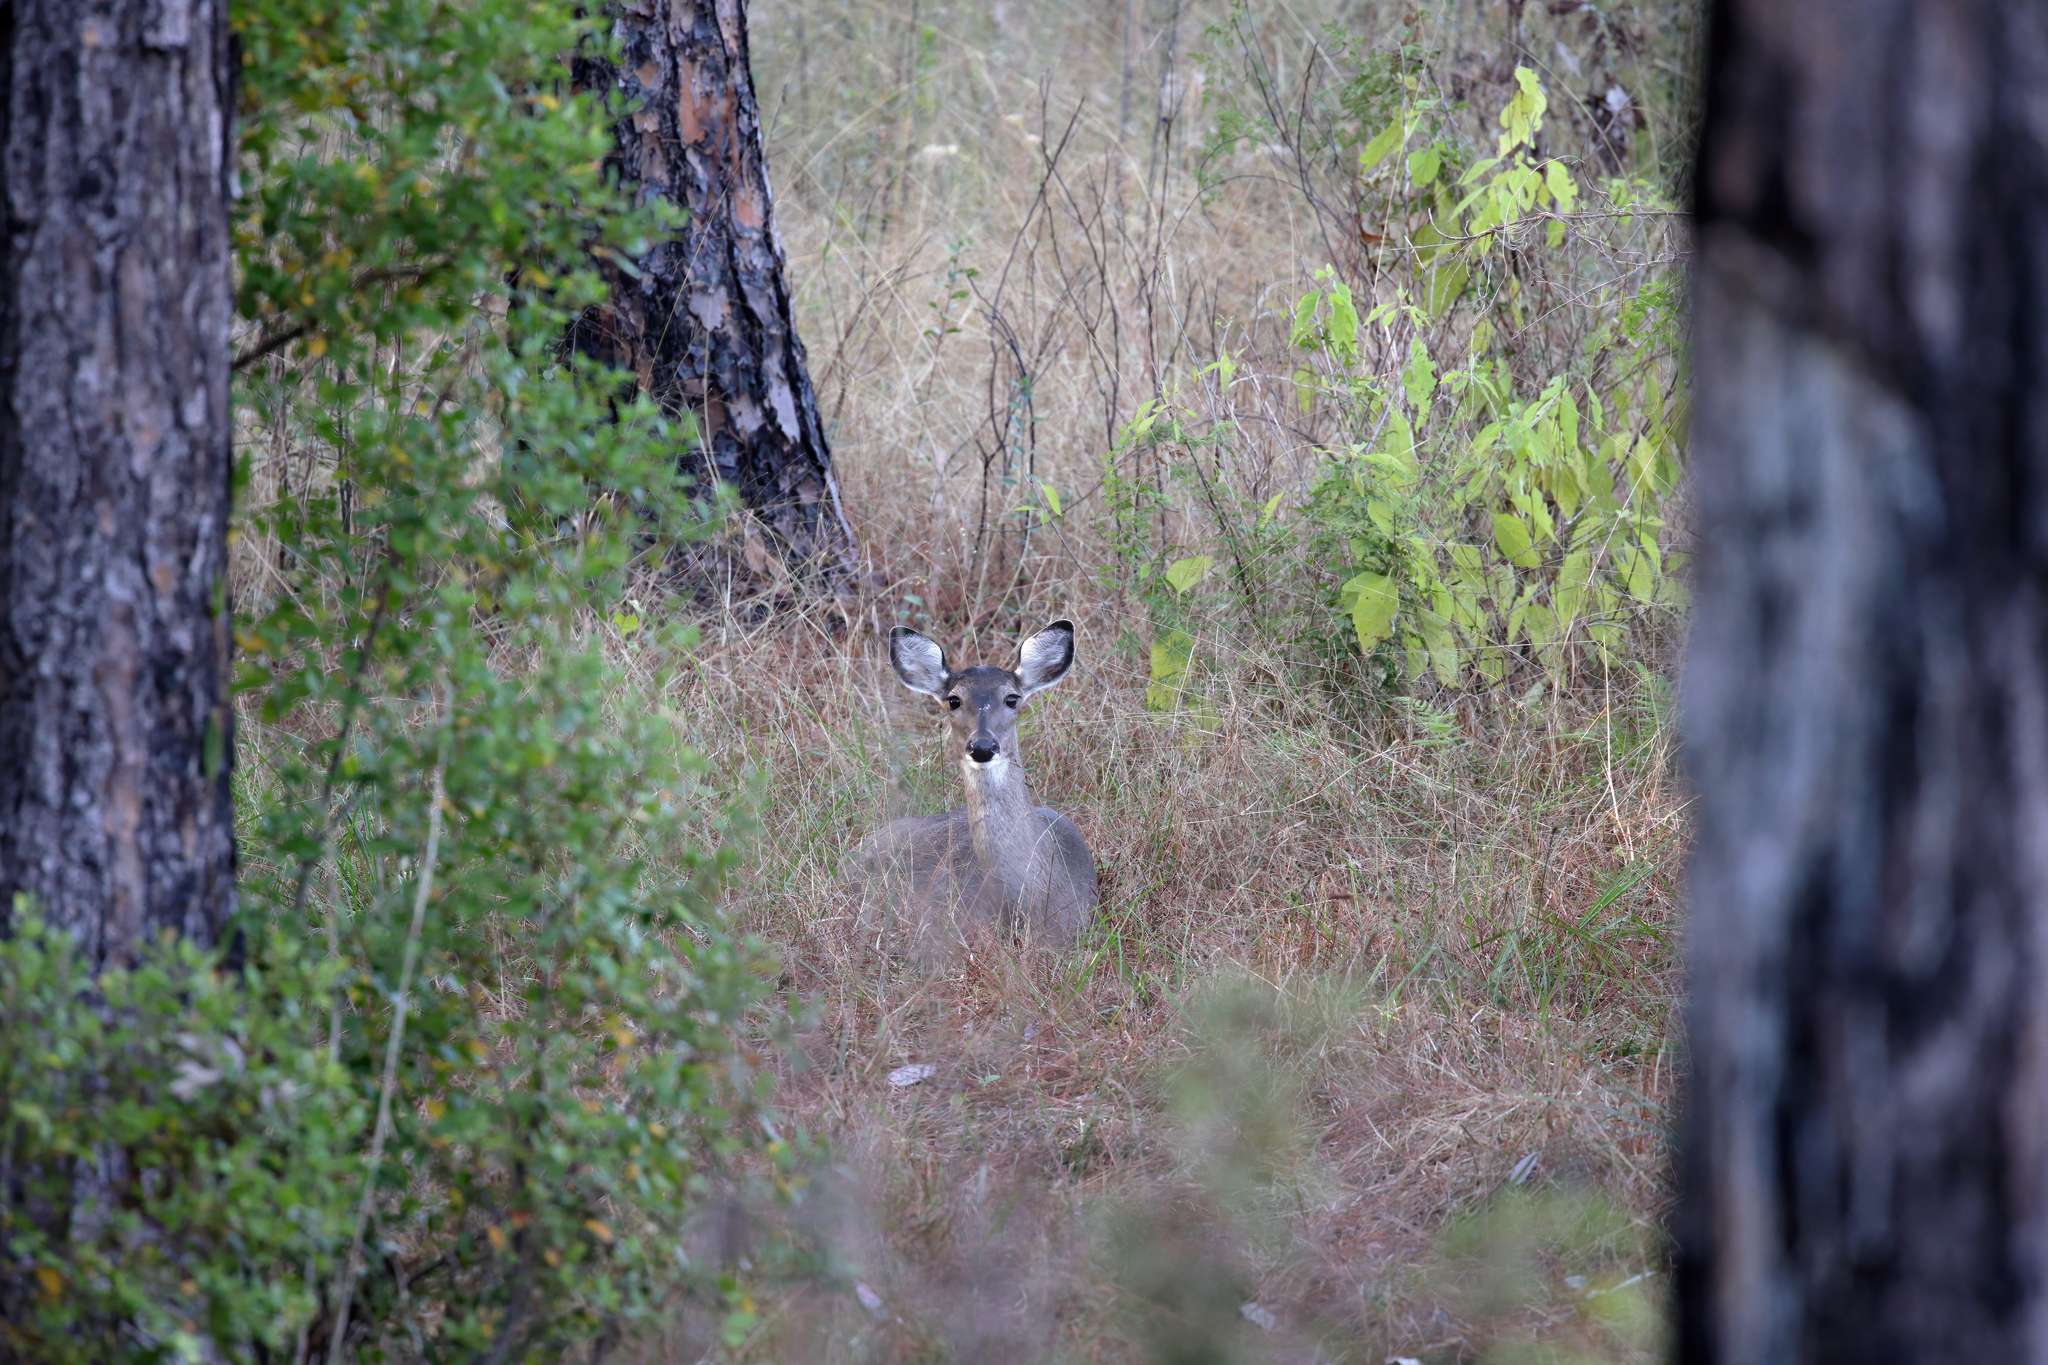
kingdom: Animalia
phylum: Chordata
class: Mammalia
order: Artiodactyla
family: Cervidae
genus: Odocoileus
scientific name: Odocoileus virginianus
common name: White-tailed deer
